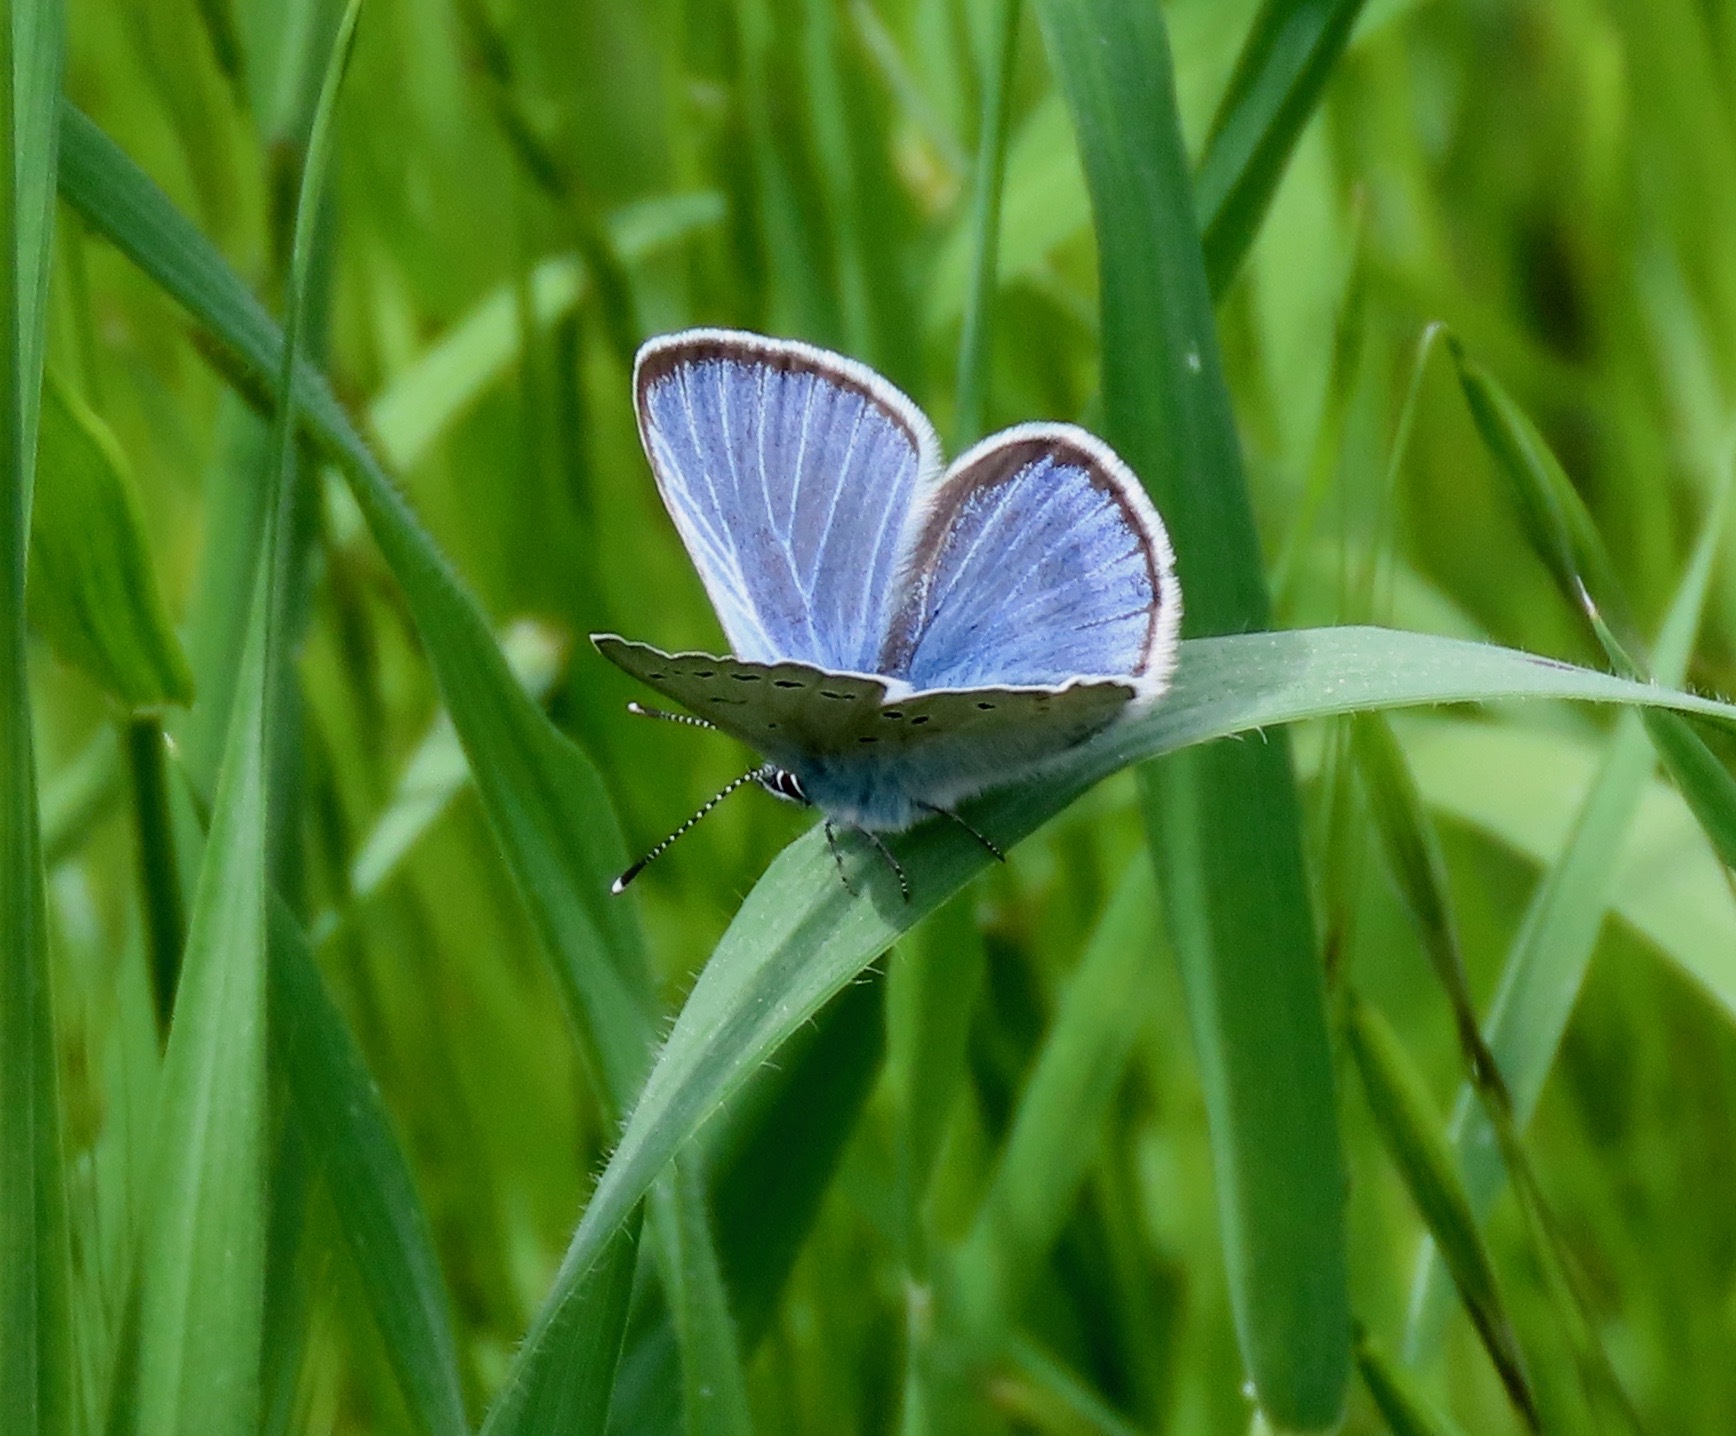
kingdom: Animalia
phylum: Arthropoda
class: Insecta
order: Lepidoptera
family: Lycaenidae
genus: Glaucopsyche
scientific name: Glaucopsyche lygdamus
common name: Silvery blue
